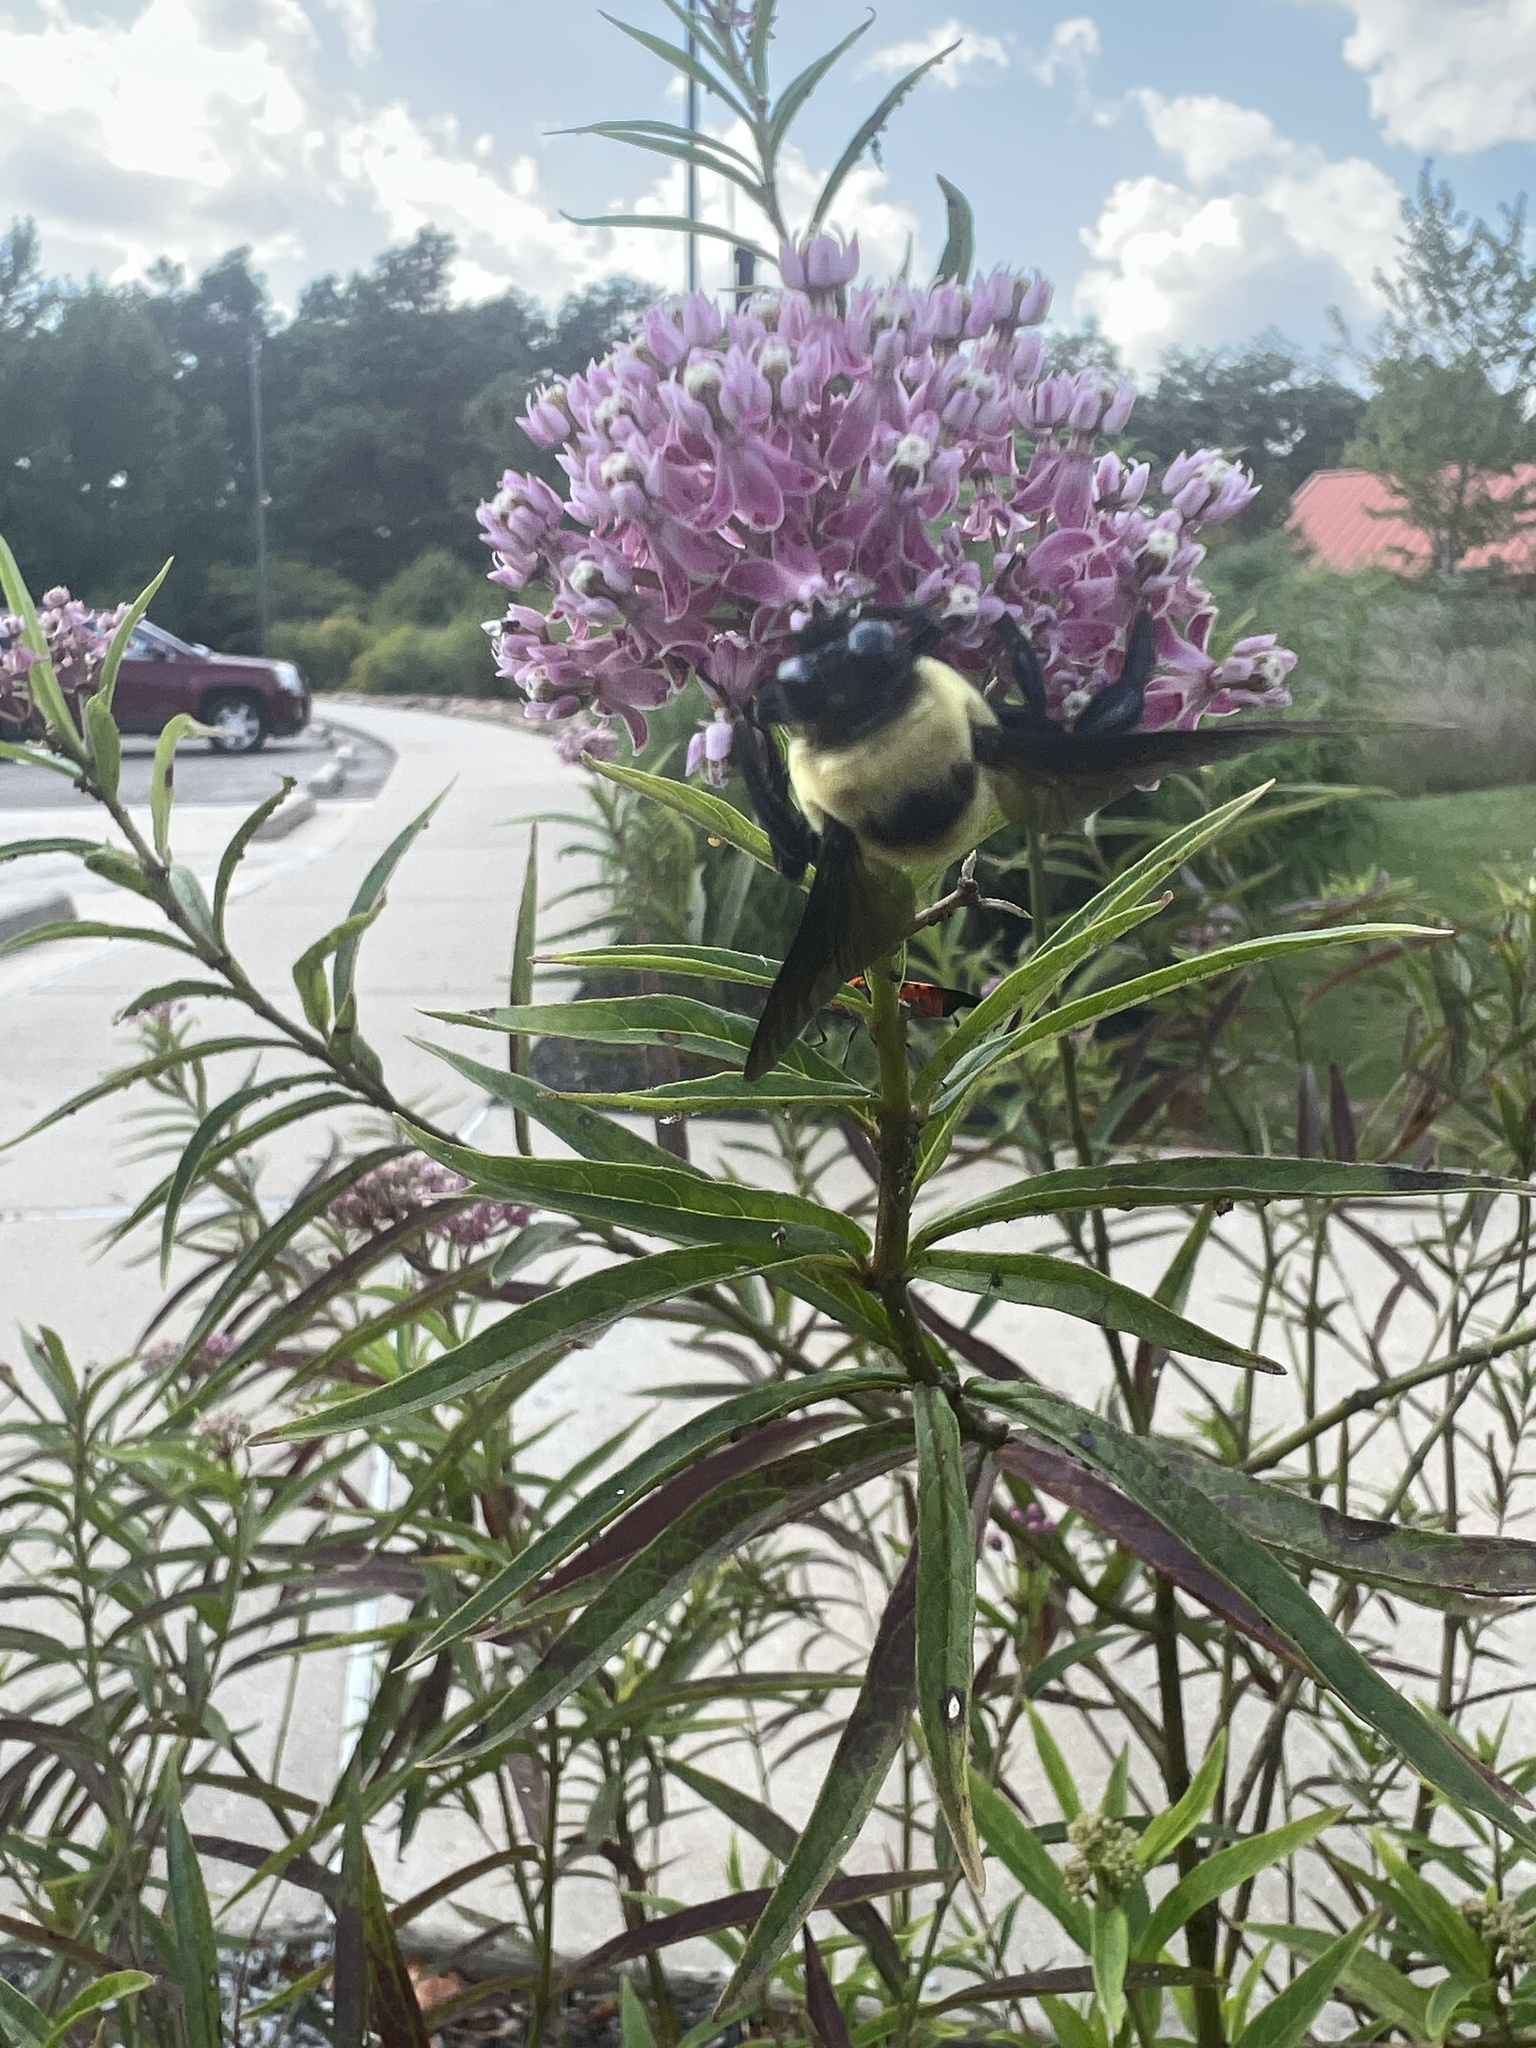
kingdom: Animalia
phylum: Arthropoda
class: Insecta
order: Hymenoptera
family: Apidae
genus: Bombus
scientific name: Bombus fraternus
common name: Southern plains bumble bee
